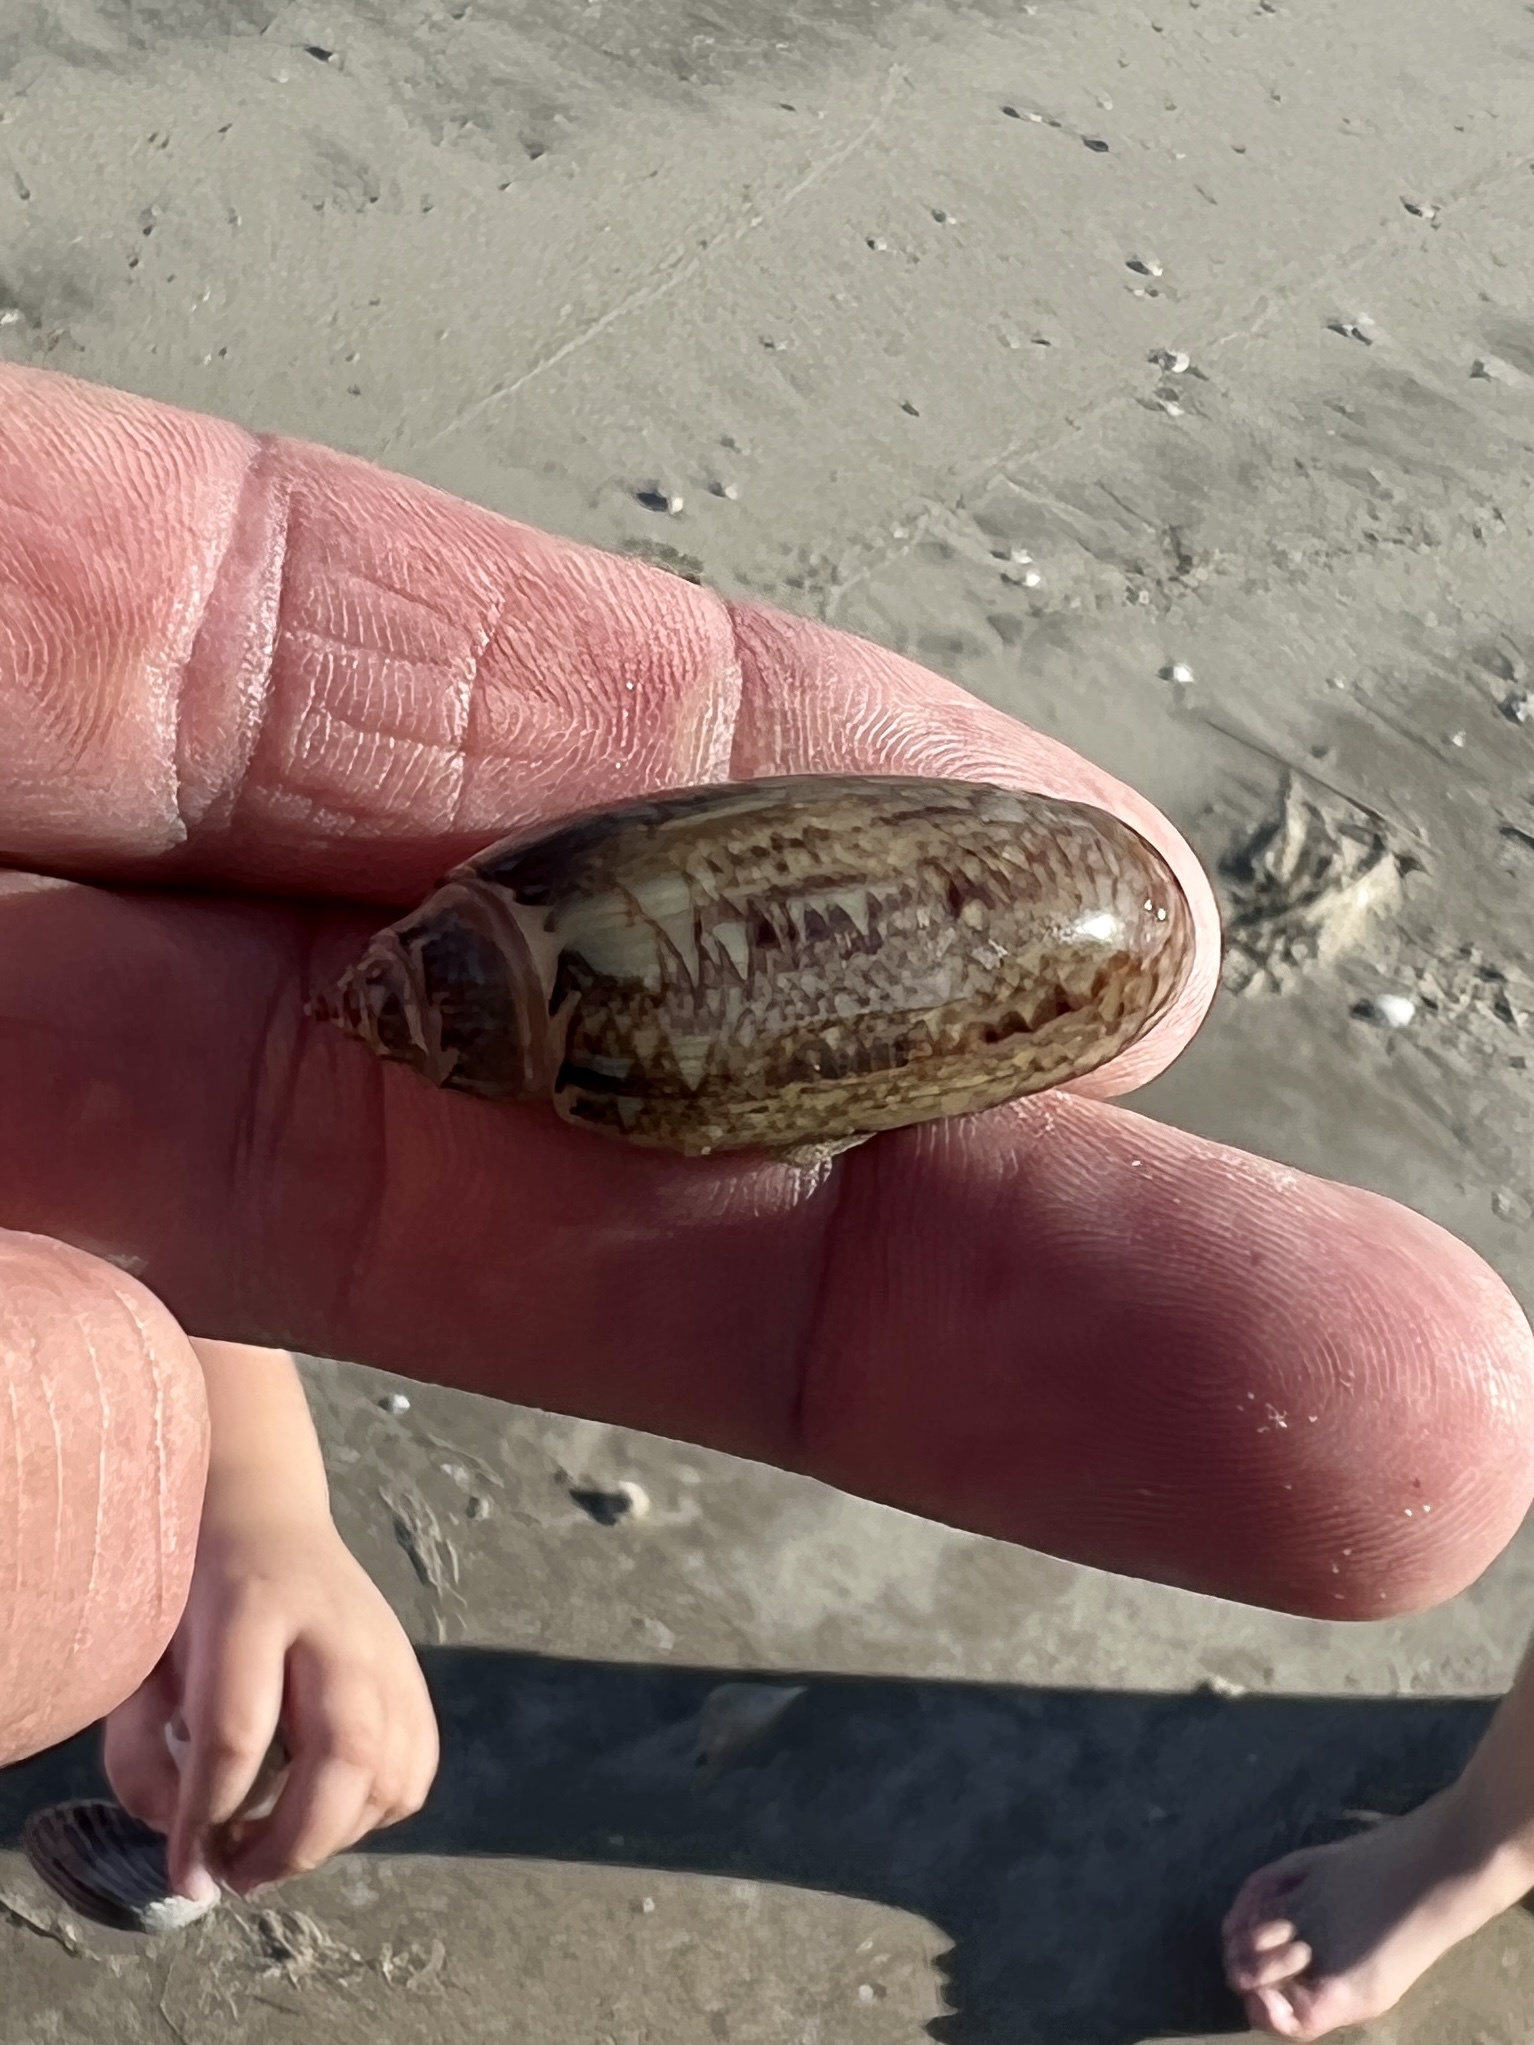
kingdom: Animalia
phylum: Mollusca
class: Gastropoda
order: Neogastropoda
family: Olividae
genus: Oliva
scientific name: Oliva sayana
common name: Lettered olive
